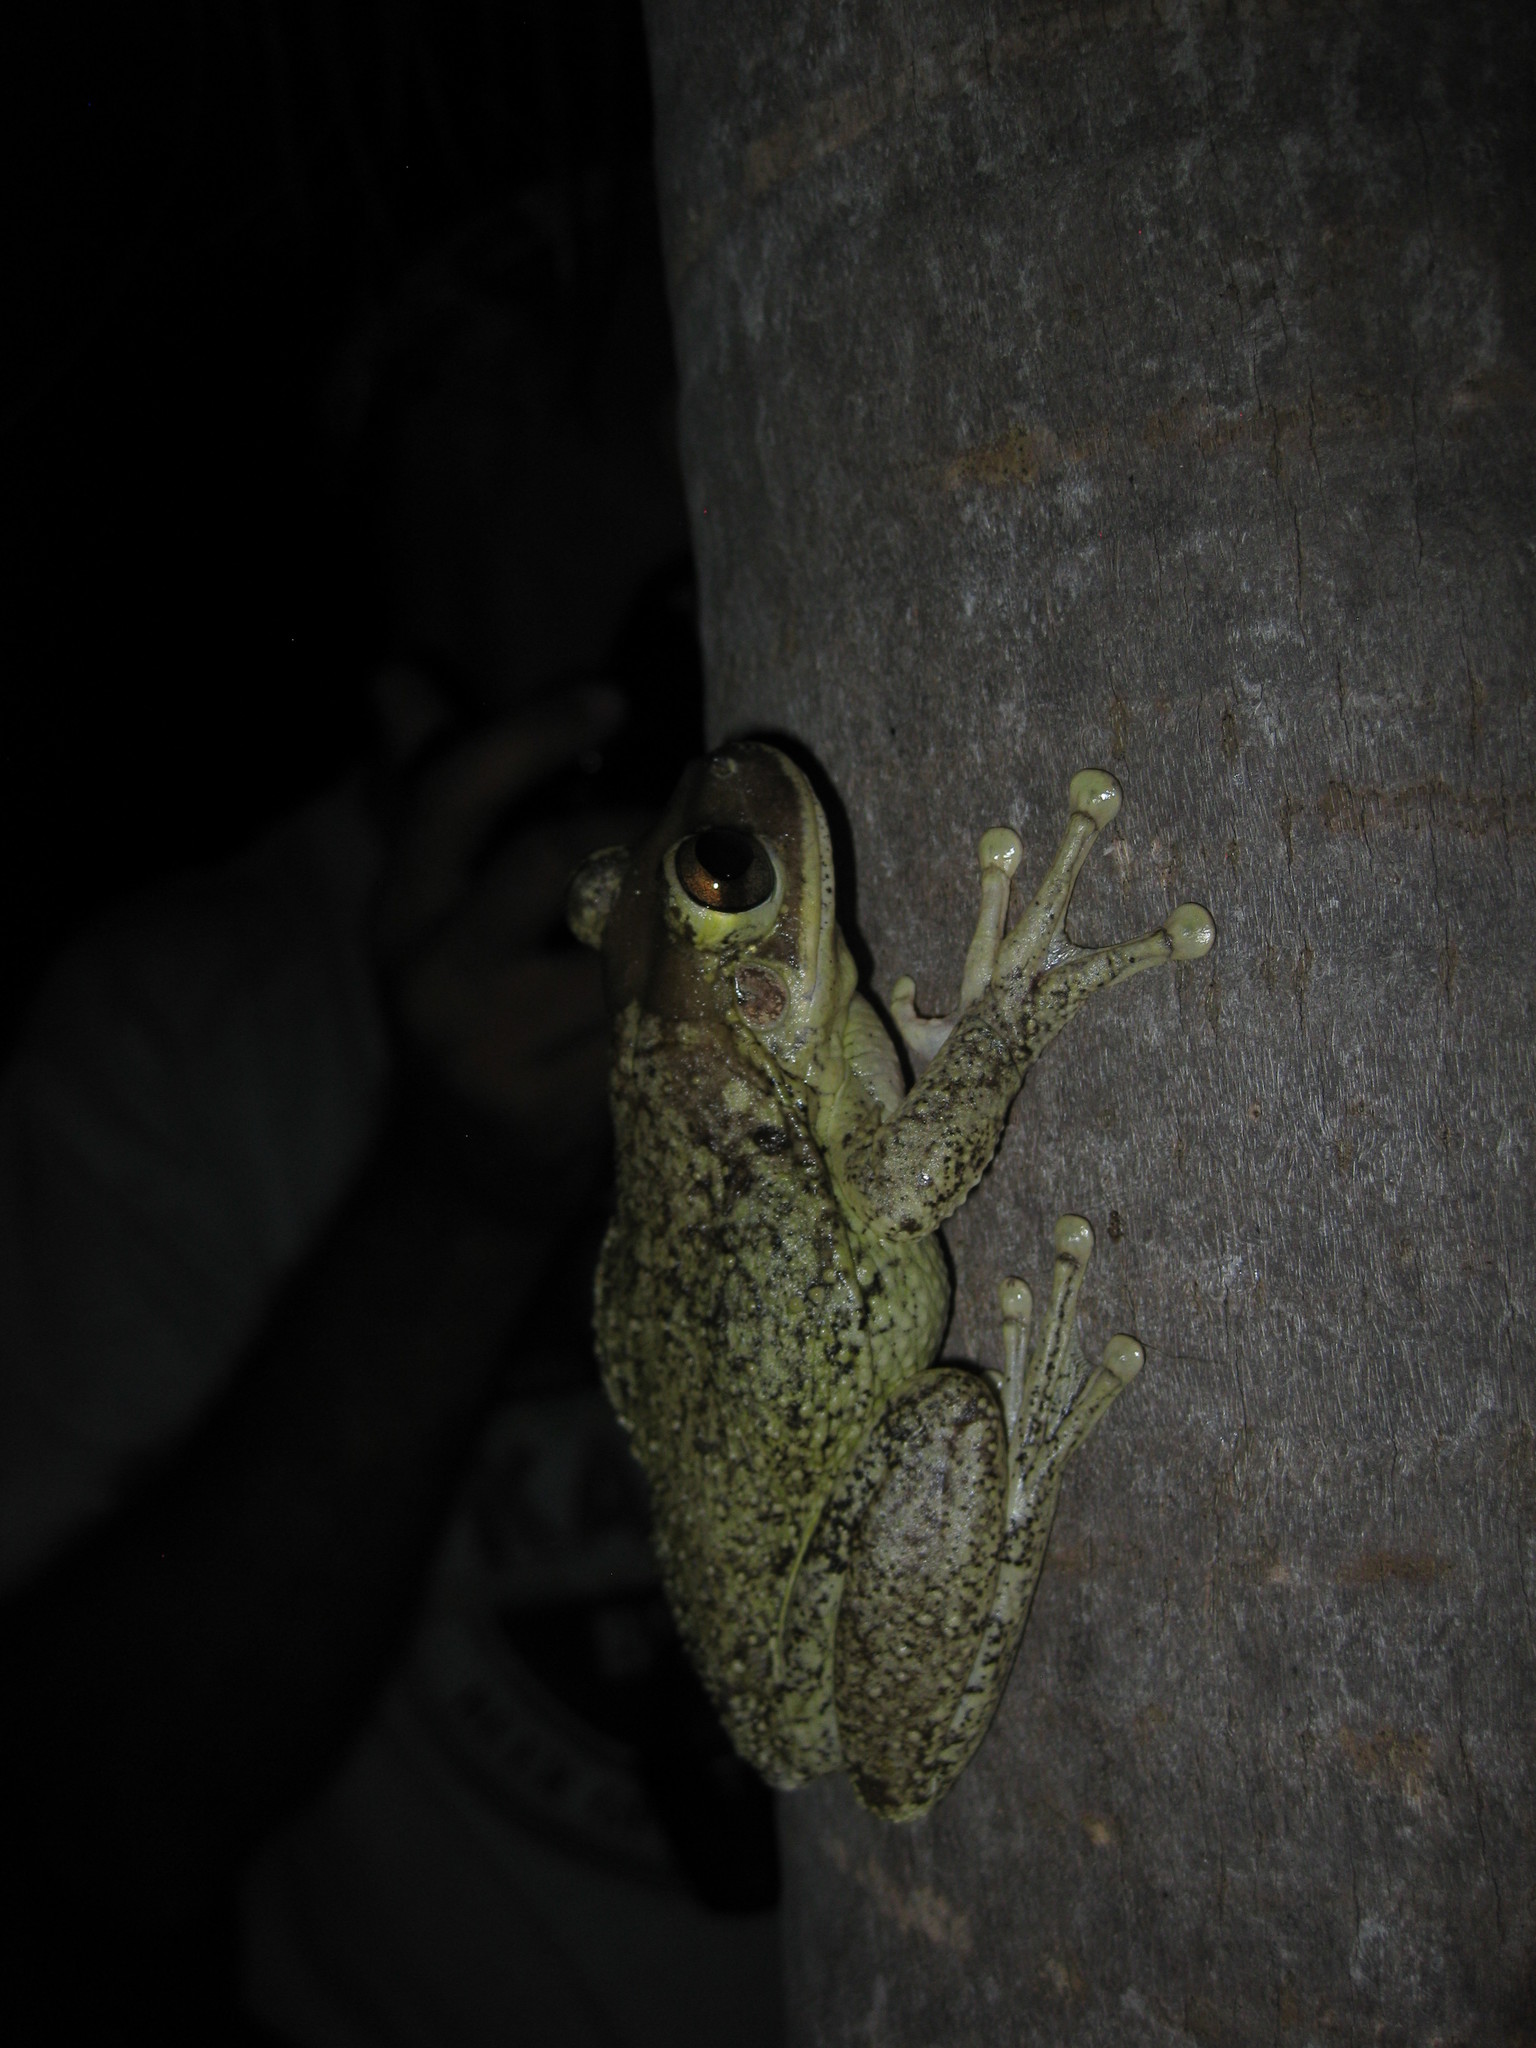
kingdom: Animalia
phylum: Chordata
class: Amphibia
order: Anura
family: Hylidae
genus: Osteopilus
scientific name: Osteopilus septentrionalis
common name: Cuban treefrog
